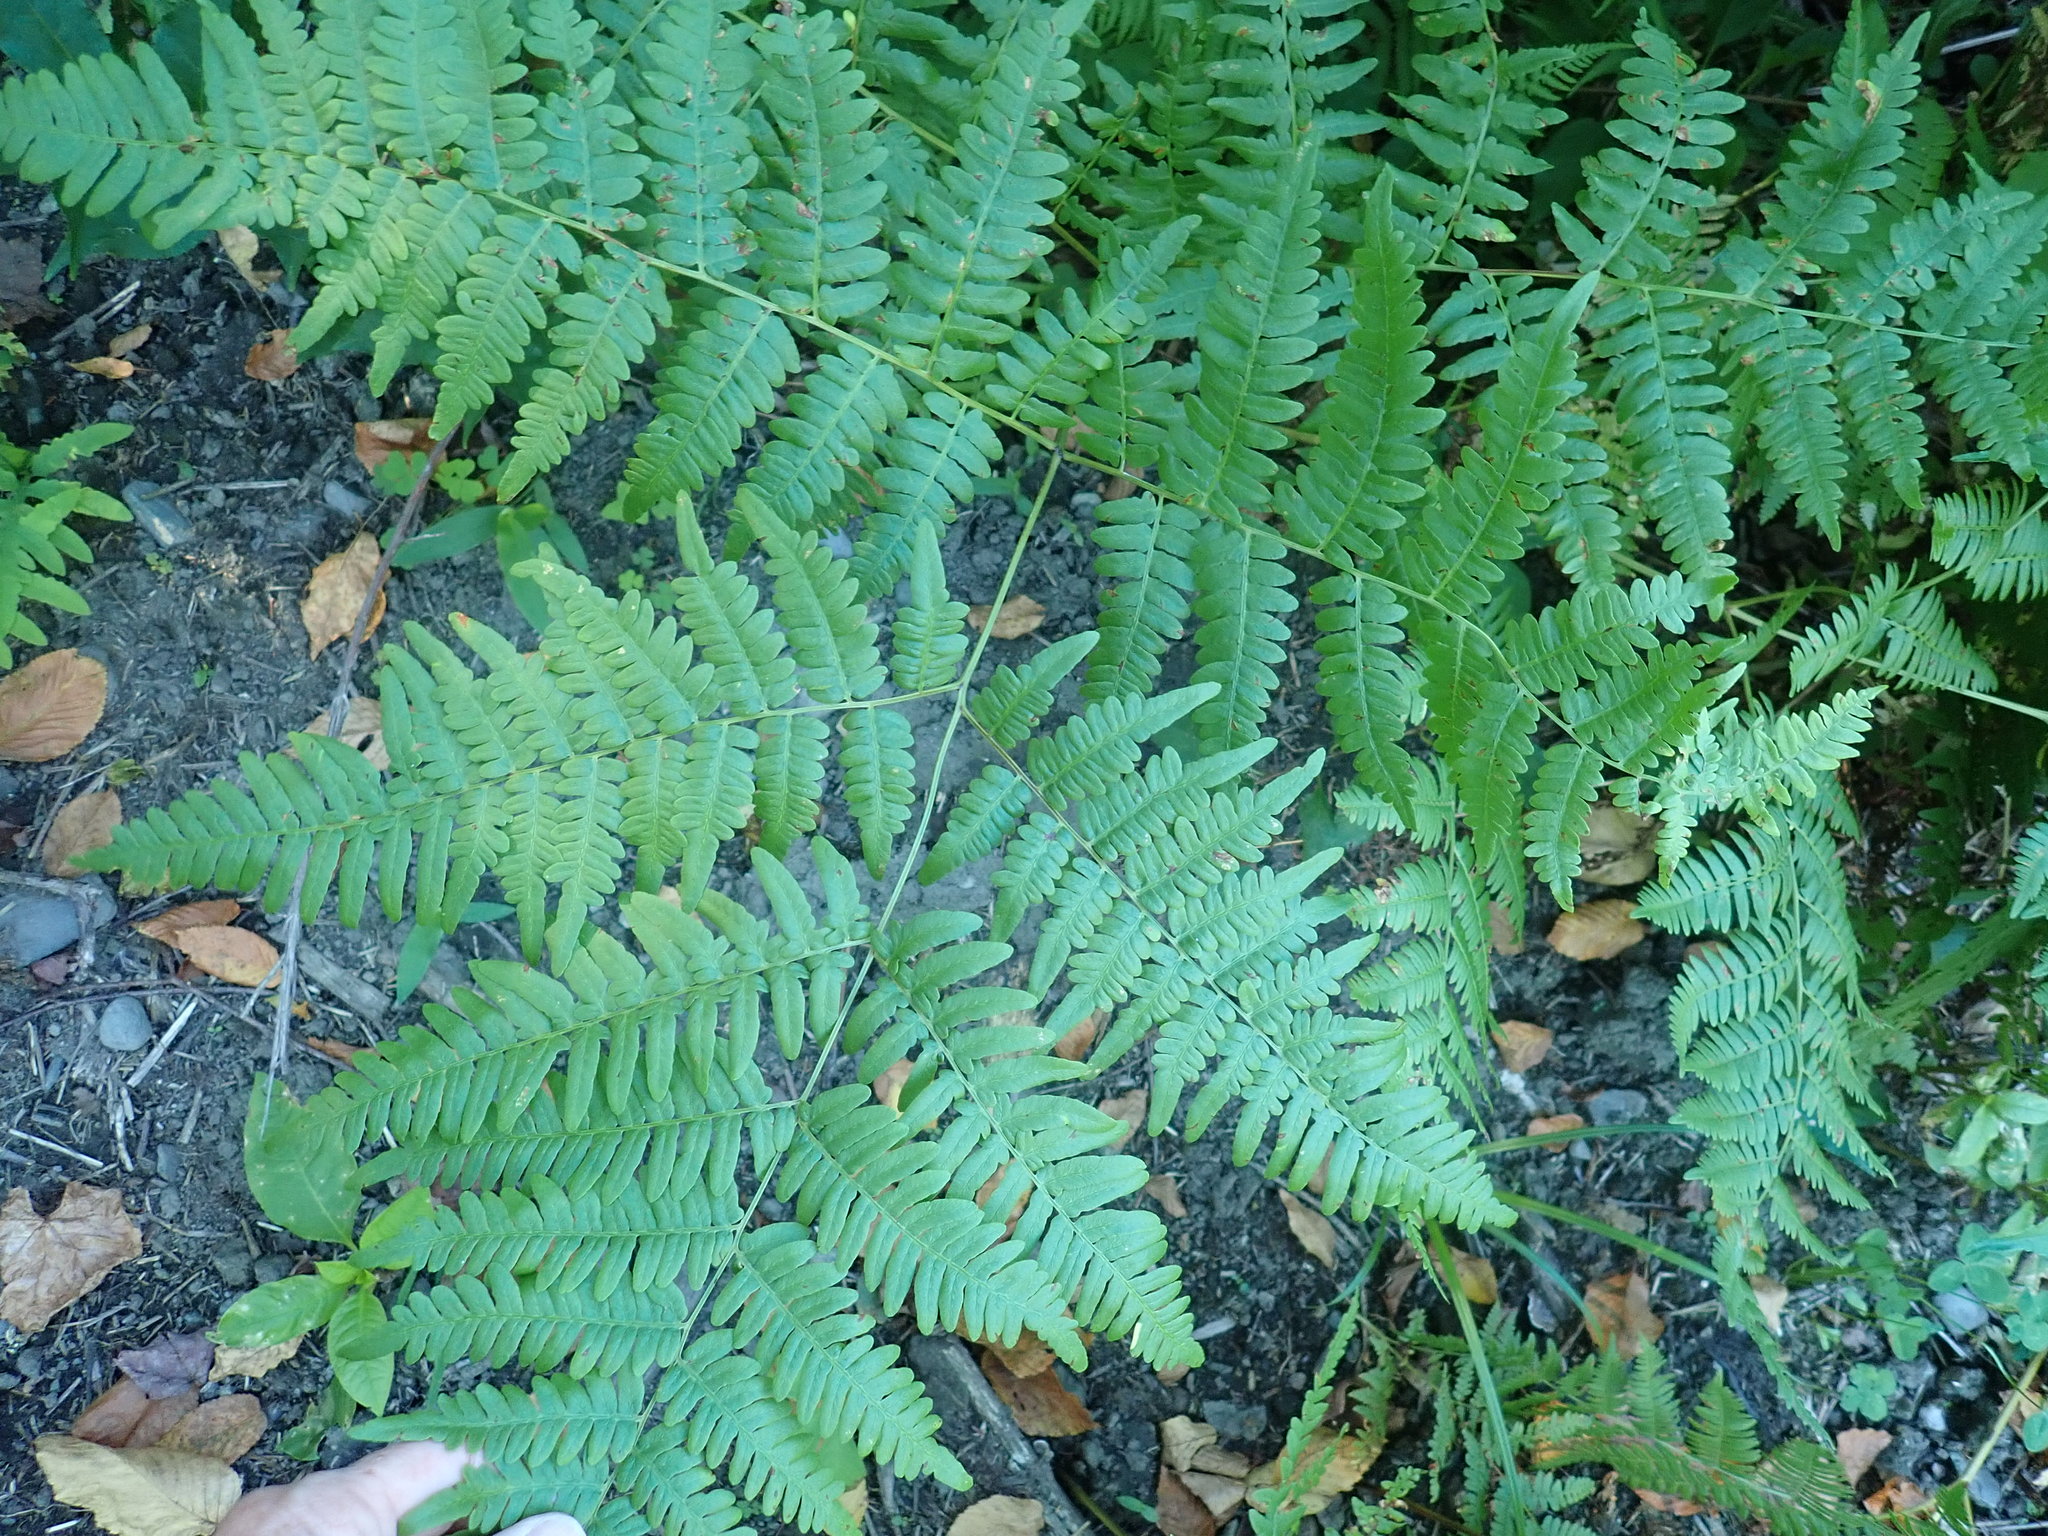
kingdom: Plantae
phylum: Tracheophyta
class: Polypodiopsida
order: Polypodiales
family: Dennstaedtiaceae
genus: Pteridium
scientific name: Pteridium aquilinum
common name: Bracken
